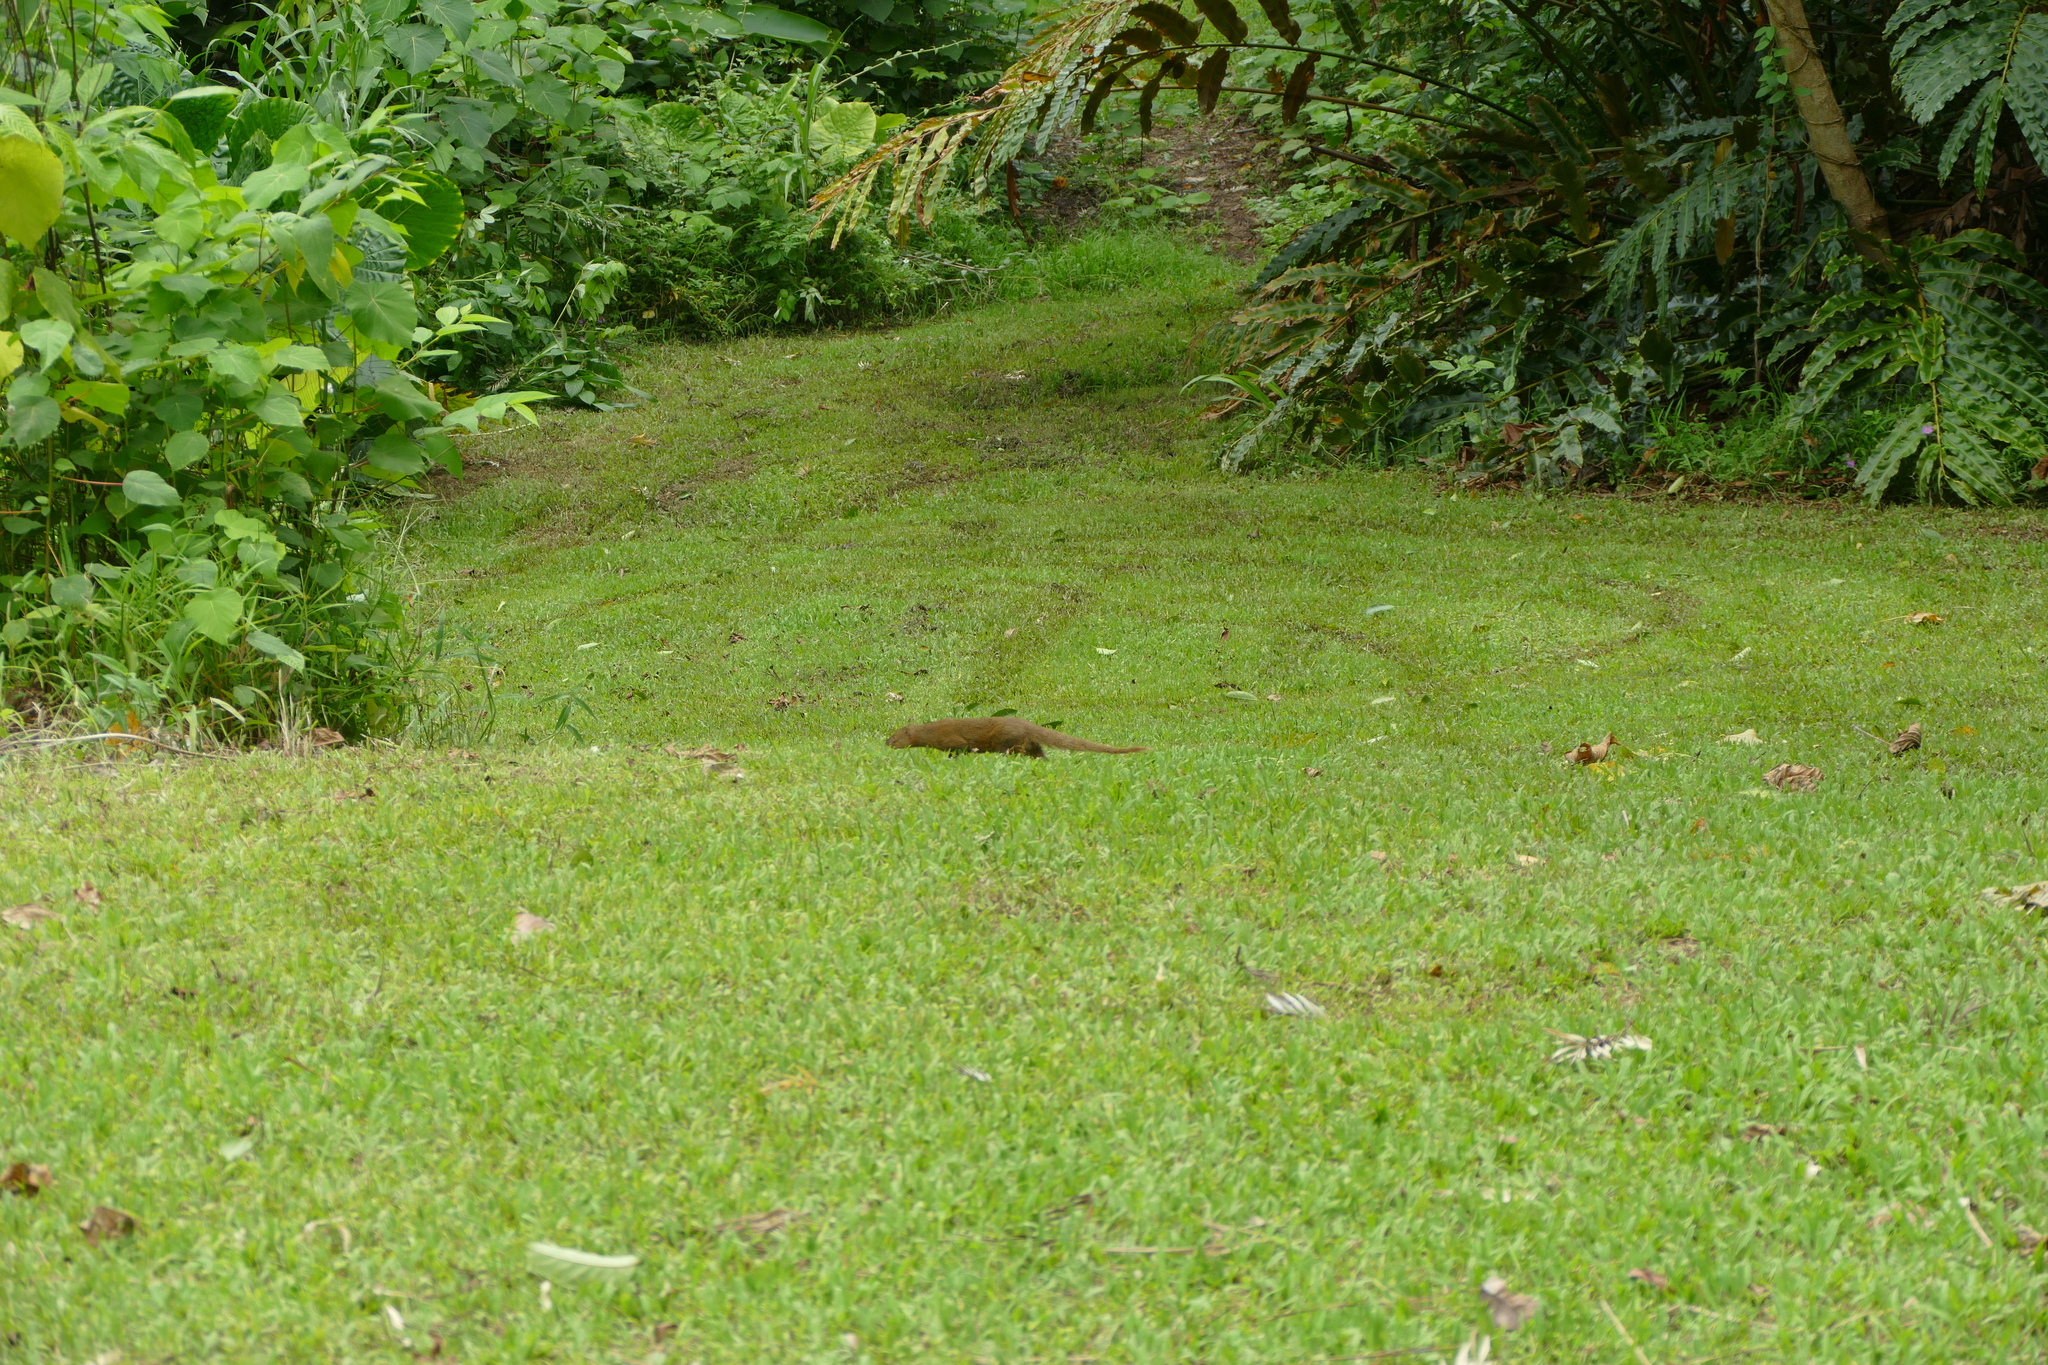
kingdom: Animalia
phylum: Chordata
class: Mammalia
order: Carnivora
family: Herpestidae
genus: Herpestes
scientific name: Herpestes javanicus
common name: Small asian mongoose
